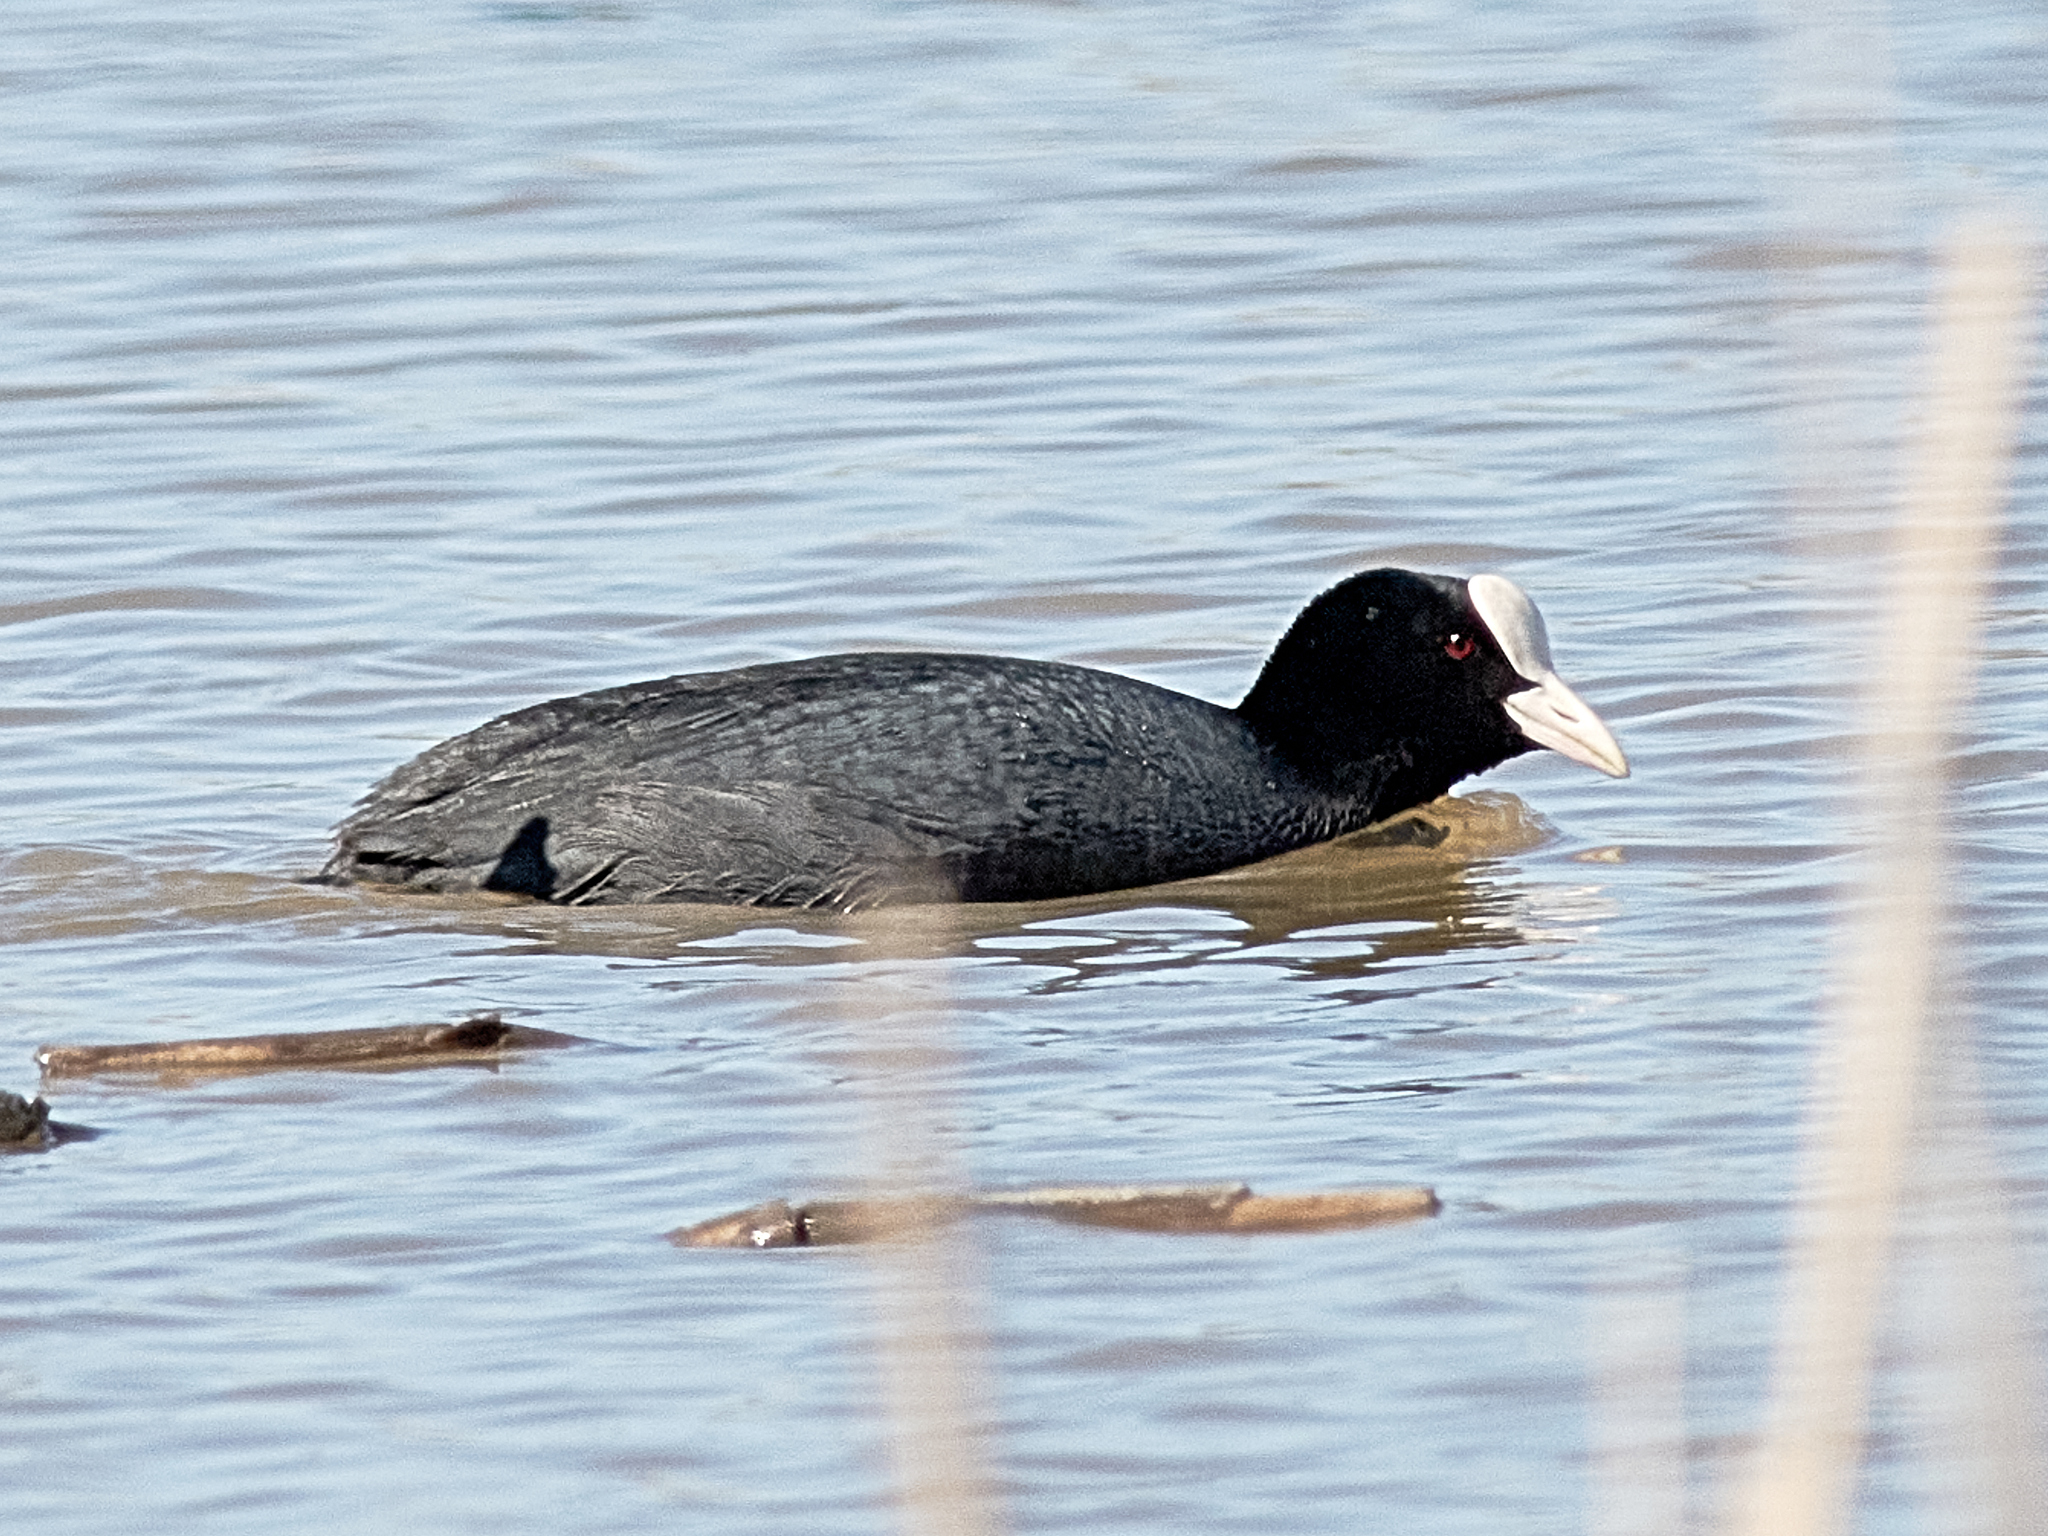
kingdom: Animalia
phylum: Chordata
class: Aves
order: Gruiformes
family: Rallidae
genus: Fulica
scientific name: Fulica atra
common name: Eurasian coot
